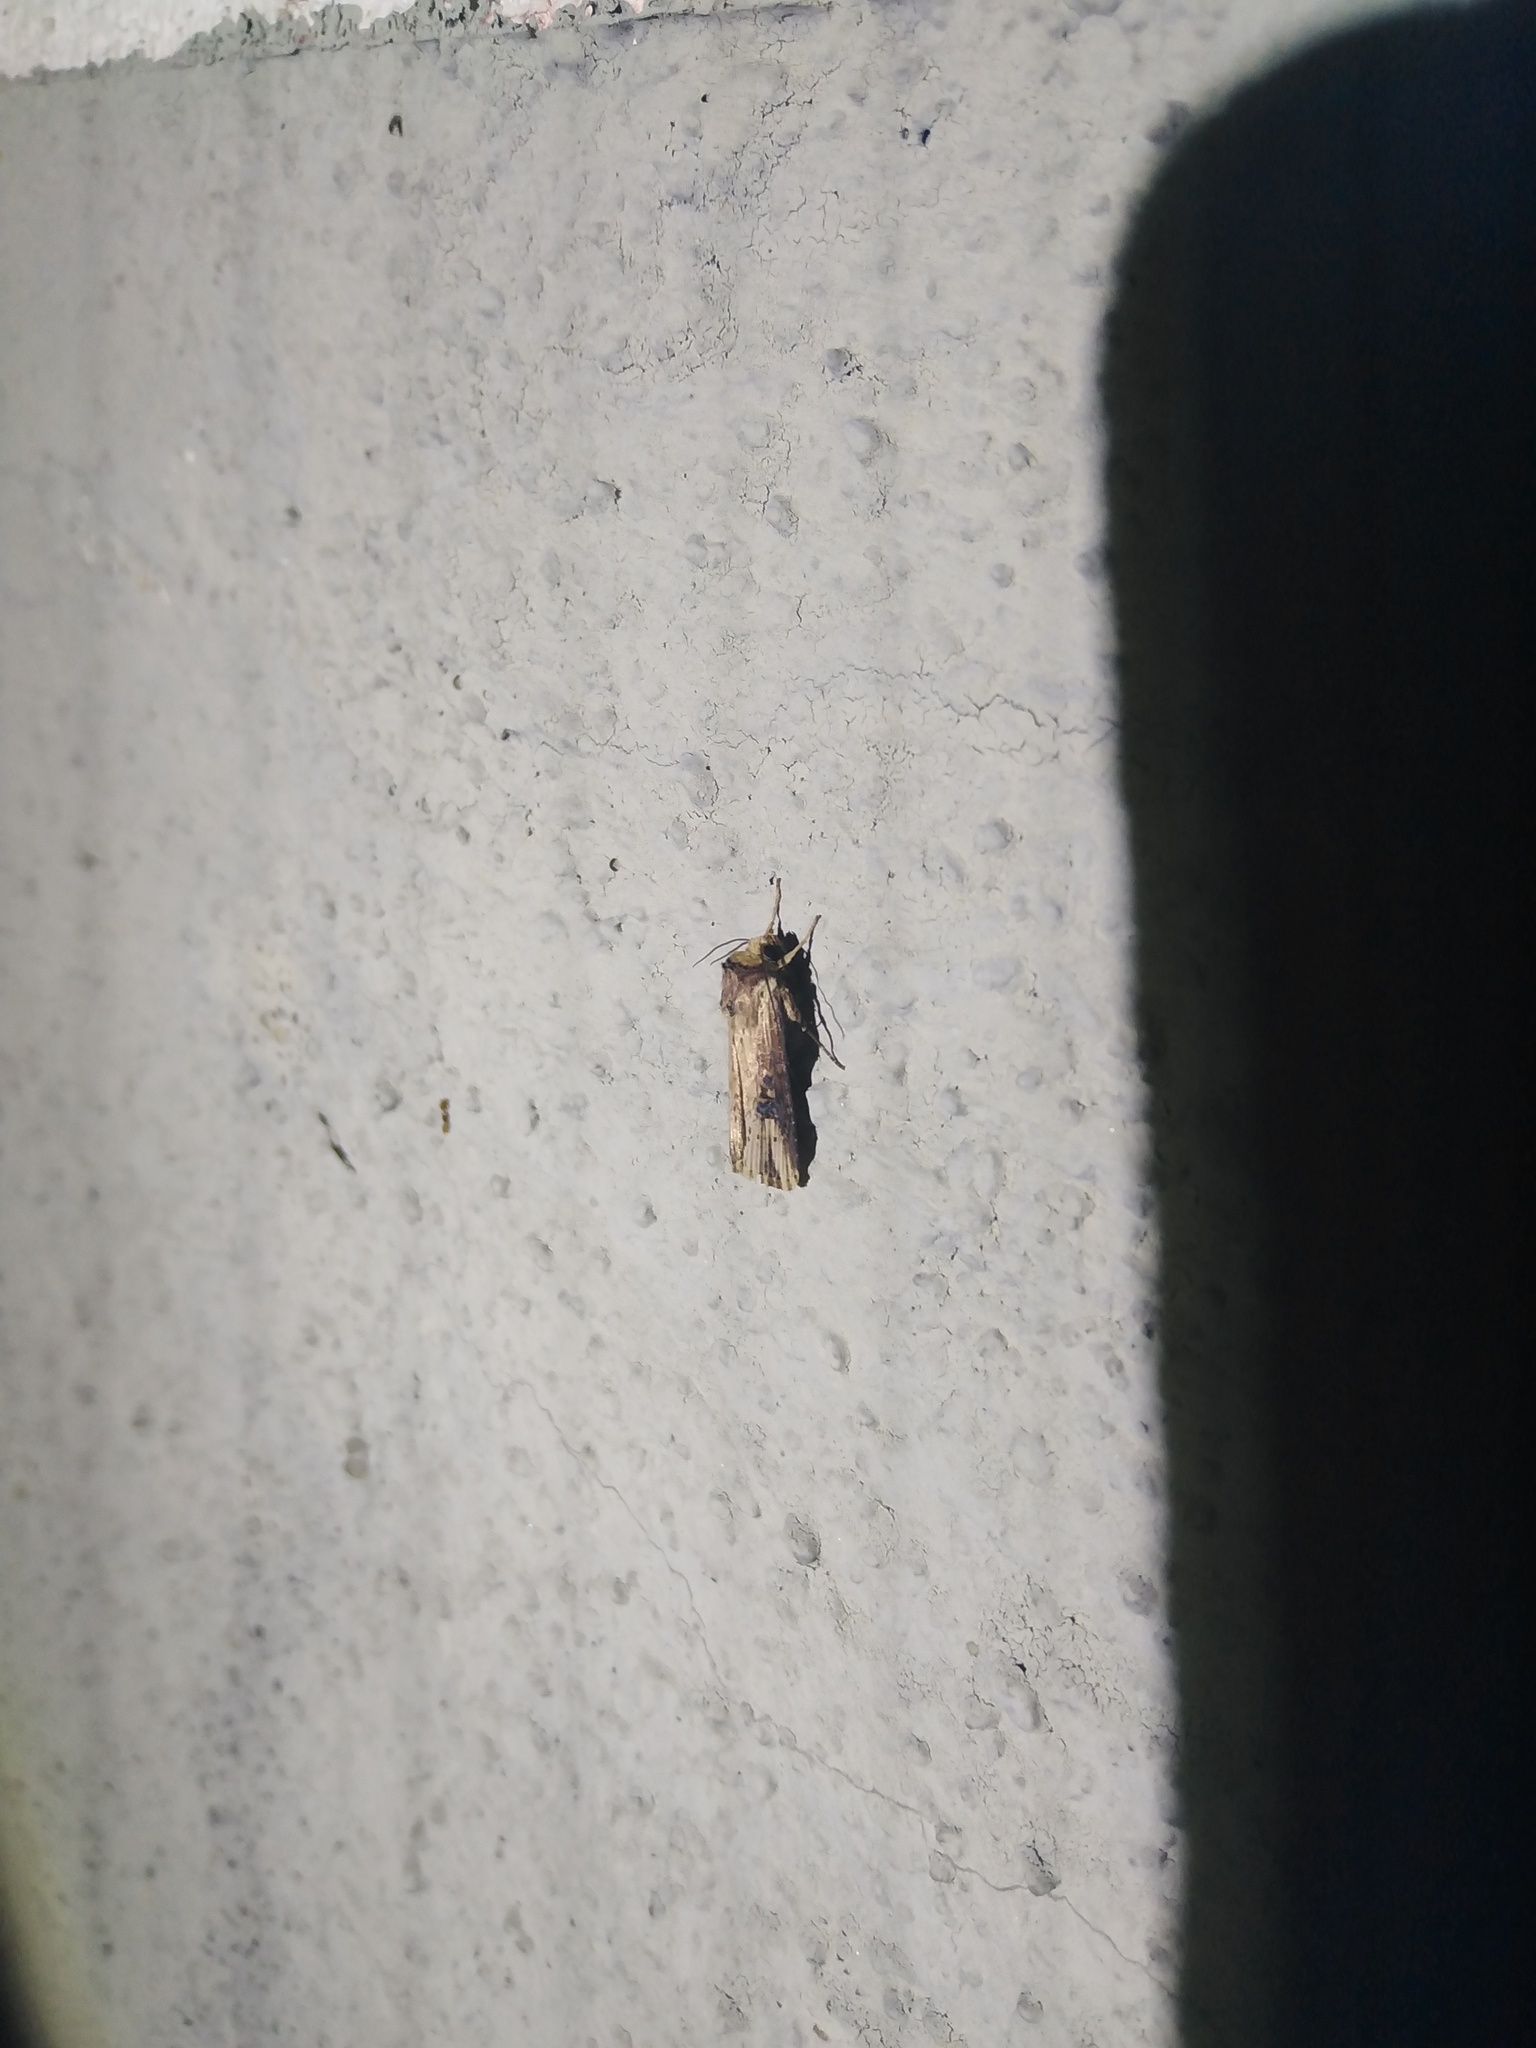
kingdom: Animalia
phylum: Arthropoda
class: Insecta
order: Lepidoptera
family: Noctuidae
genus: Axylia
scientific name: Axylia putris
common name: Flame
